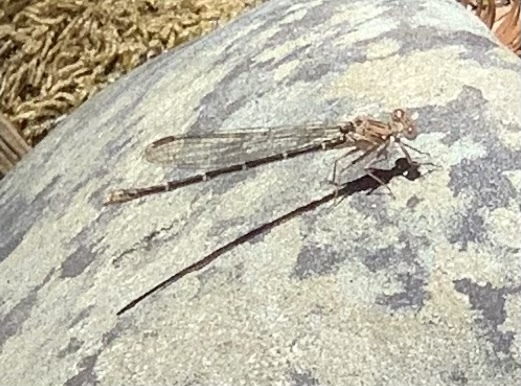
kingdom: Animalia
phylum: Arthropoda
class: Insecta
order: Odonata
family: Coenagrionidae
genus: Argia
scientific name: Argia lugens
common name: Sooty dancer
